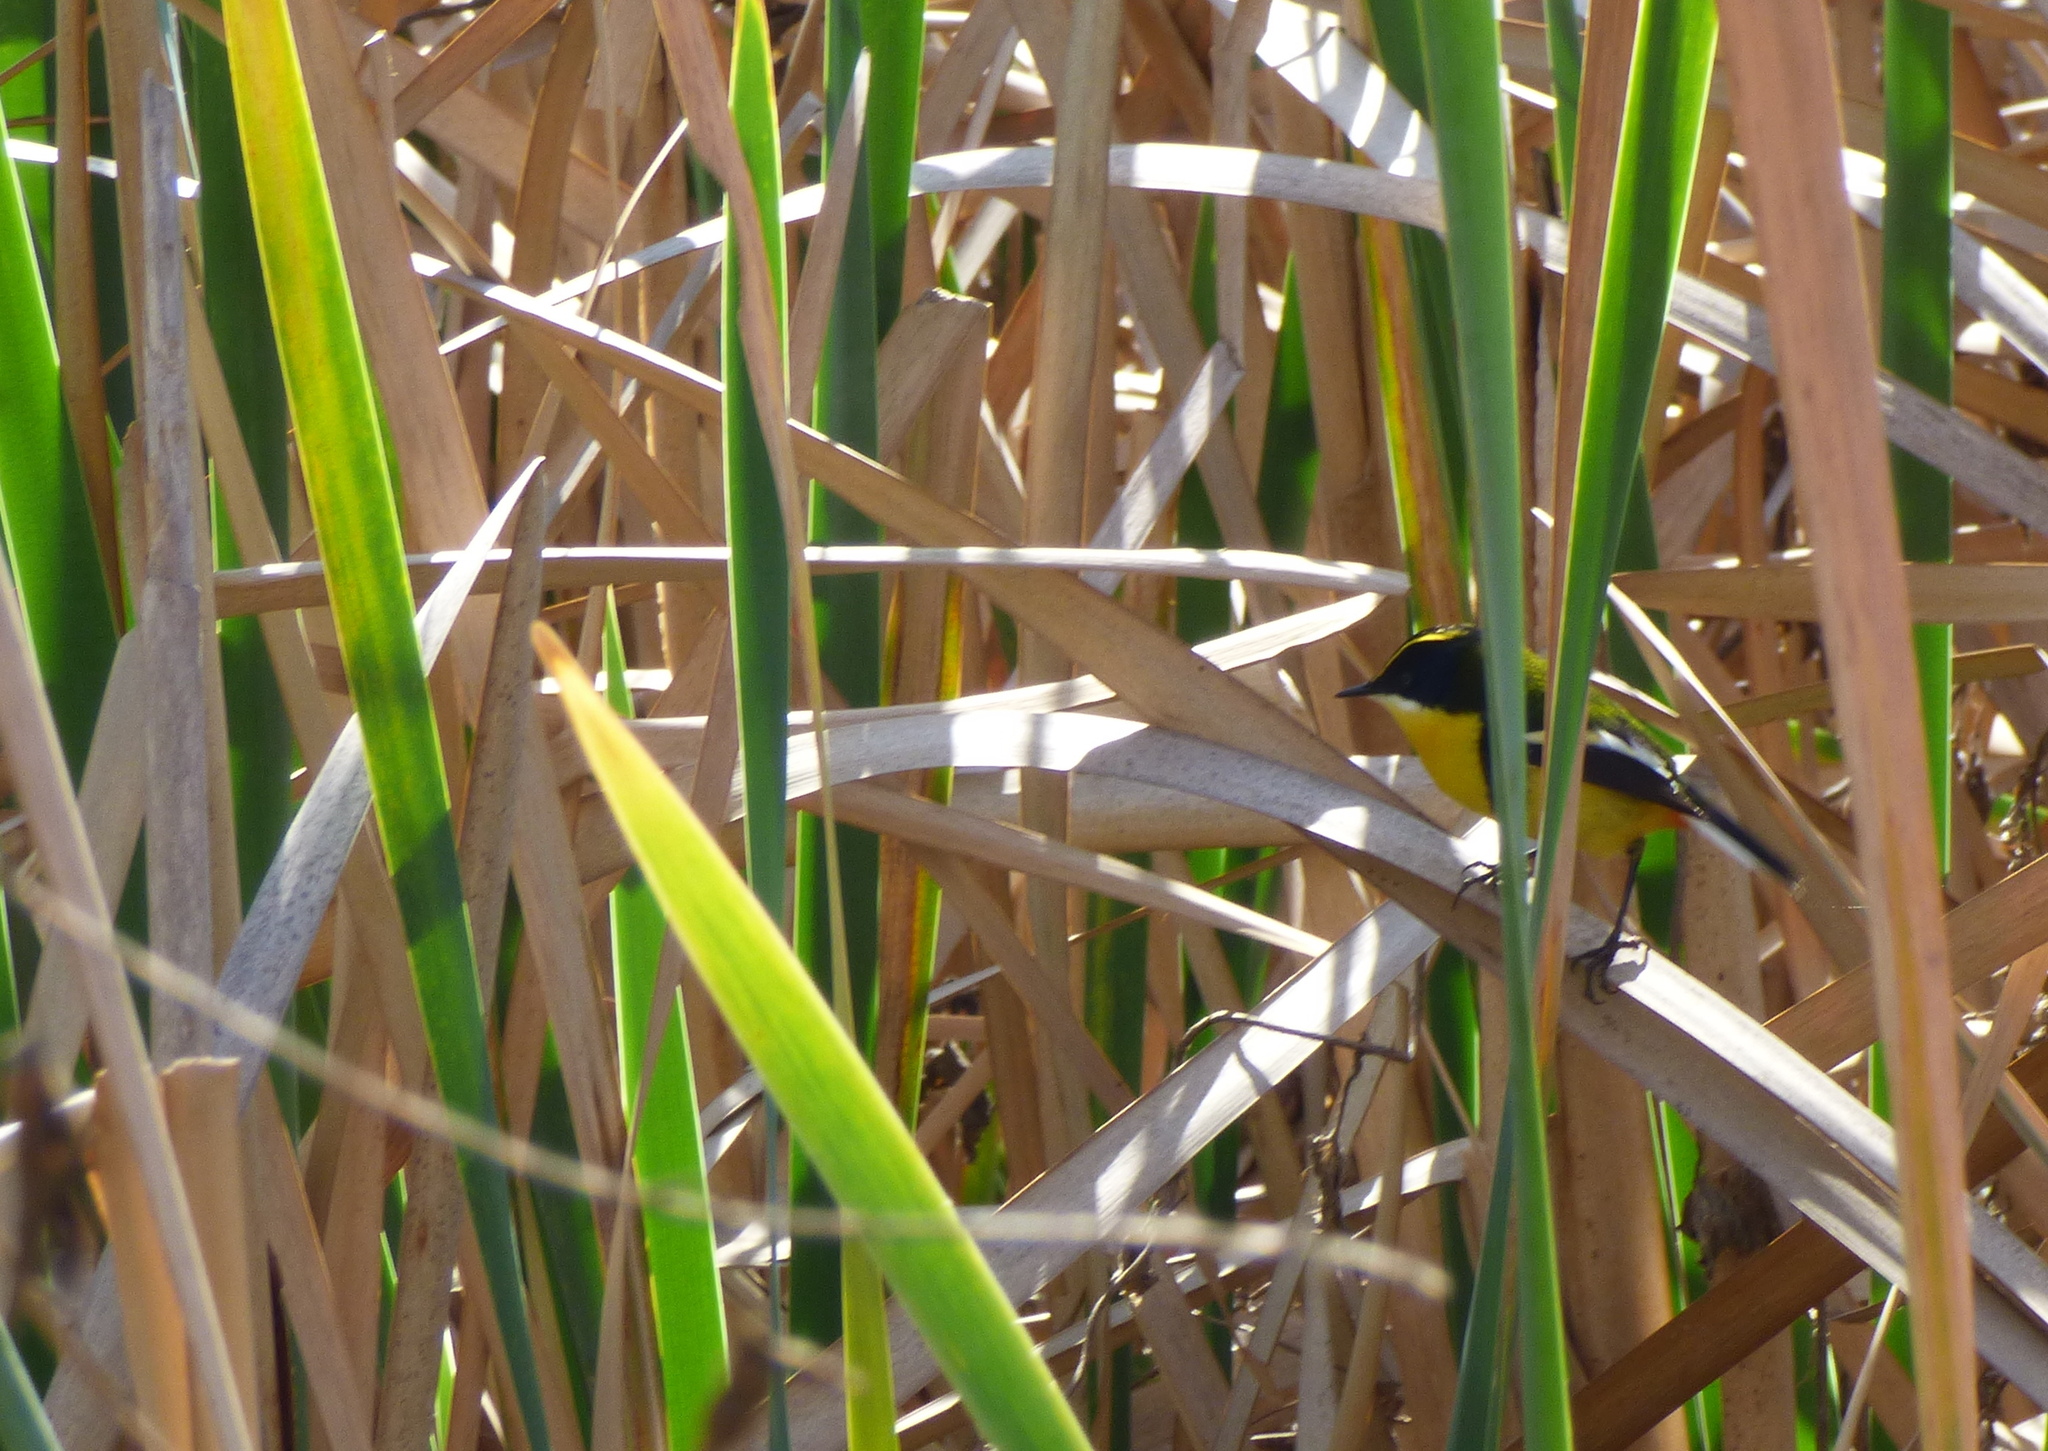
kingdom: Animalia
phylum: Chordata
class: Aves
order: Passeriformes
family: Tyrannidae
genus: Tachuris
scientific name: Tachuris rubrigastra
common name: Many-colored rush tyrant
